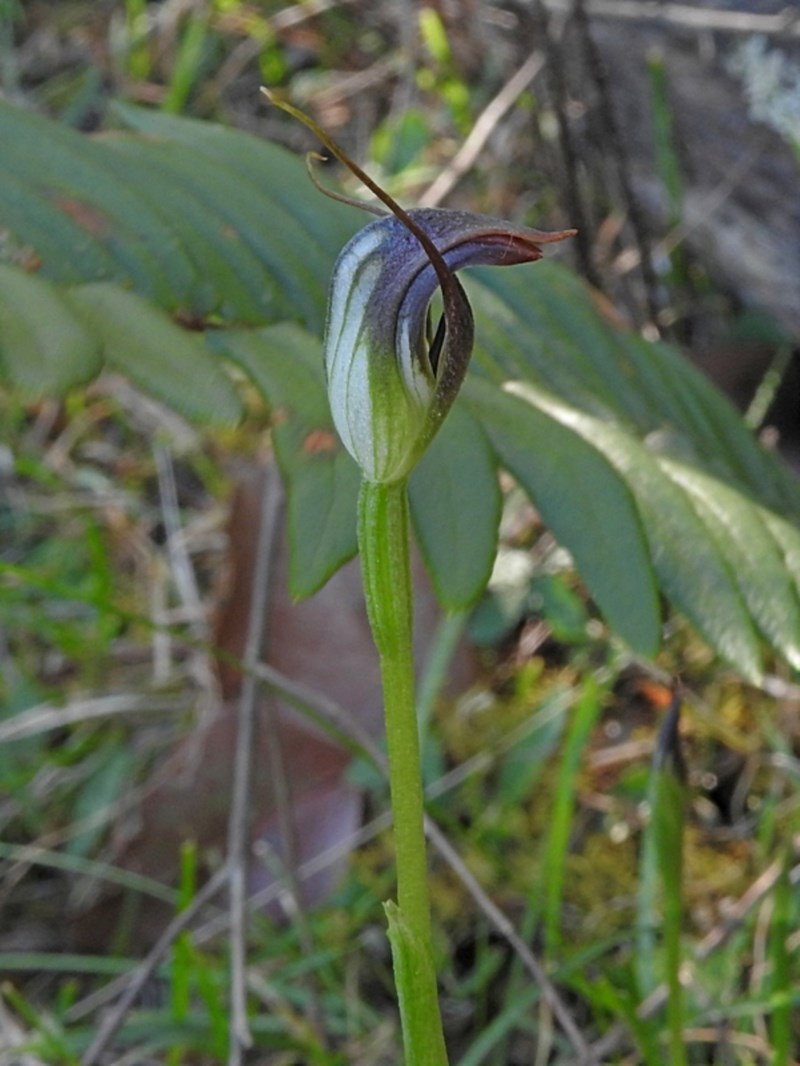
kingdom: Plantae
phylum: Tracheophyta
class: Liliopsida
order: Asparagales
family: Orchidaceae
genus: Pterostylis
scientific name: Pterostylis pedunculata
